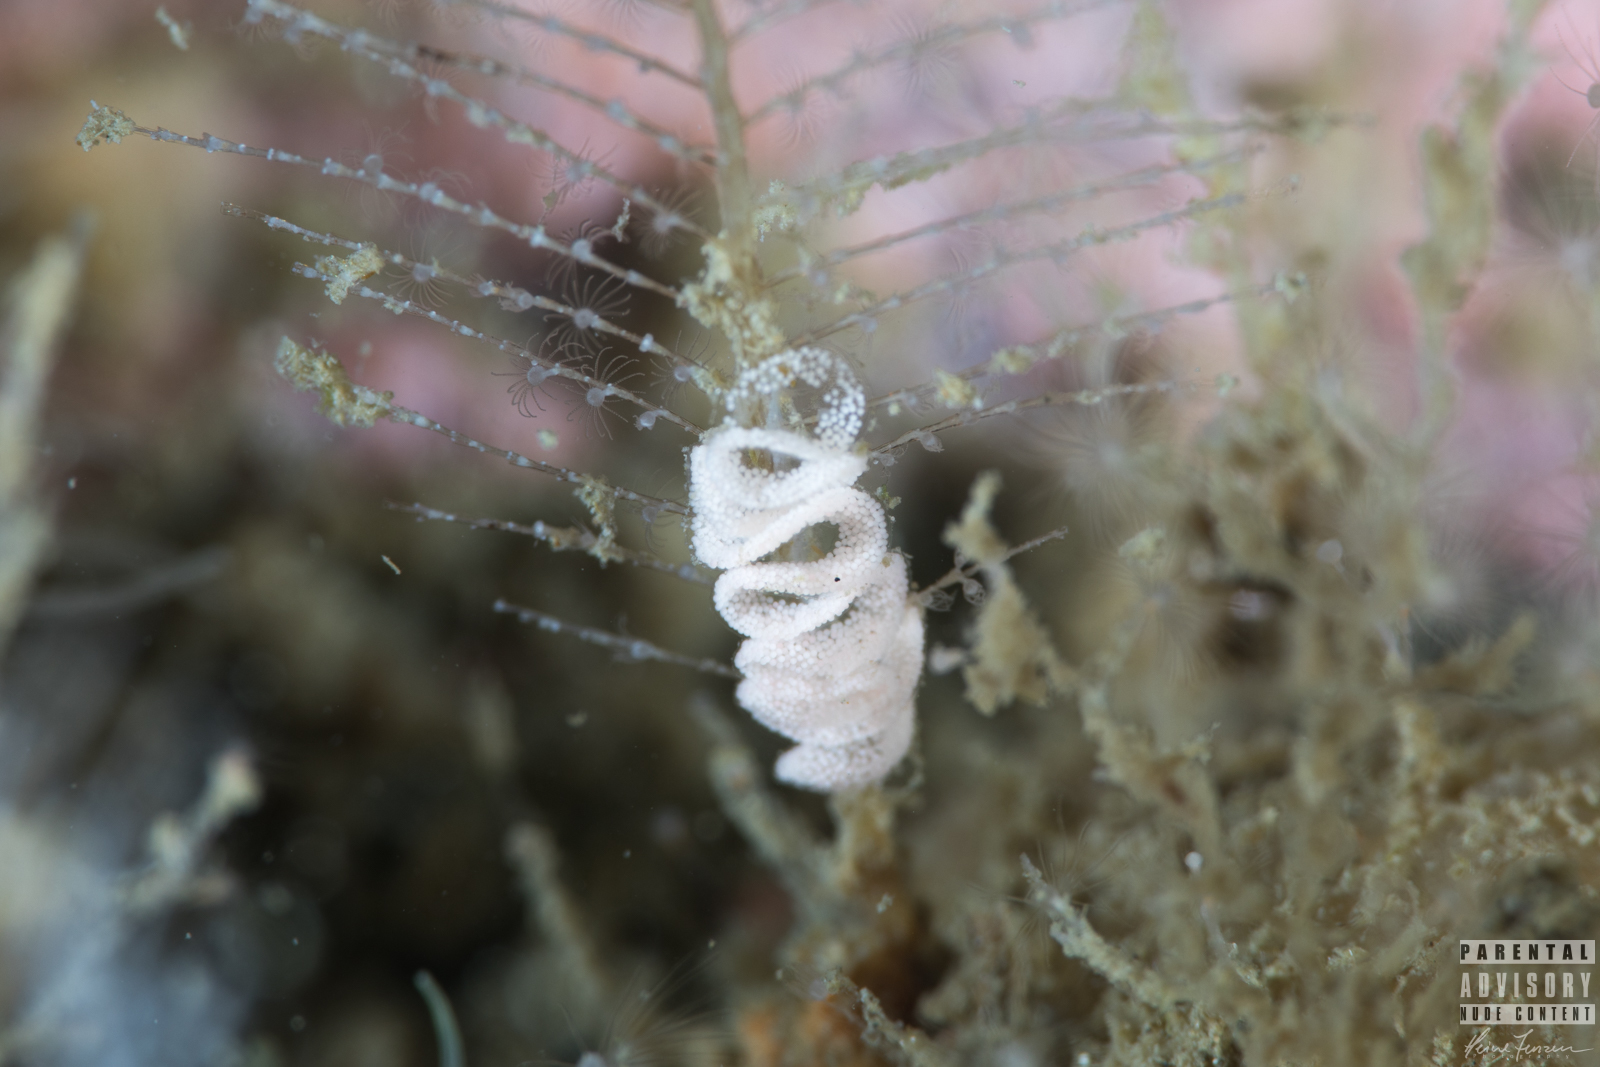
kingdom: Animalia
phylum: Mollusca
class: Gastropoda
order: Nudibranchia
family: Dotidae
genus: Doto
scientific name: Doto hystrix
